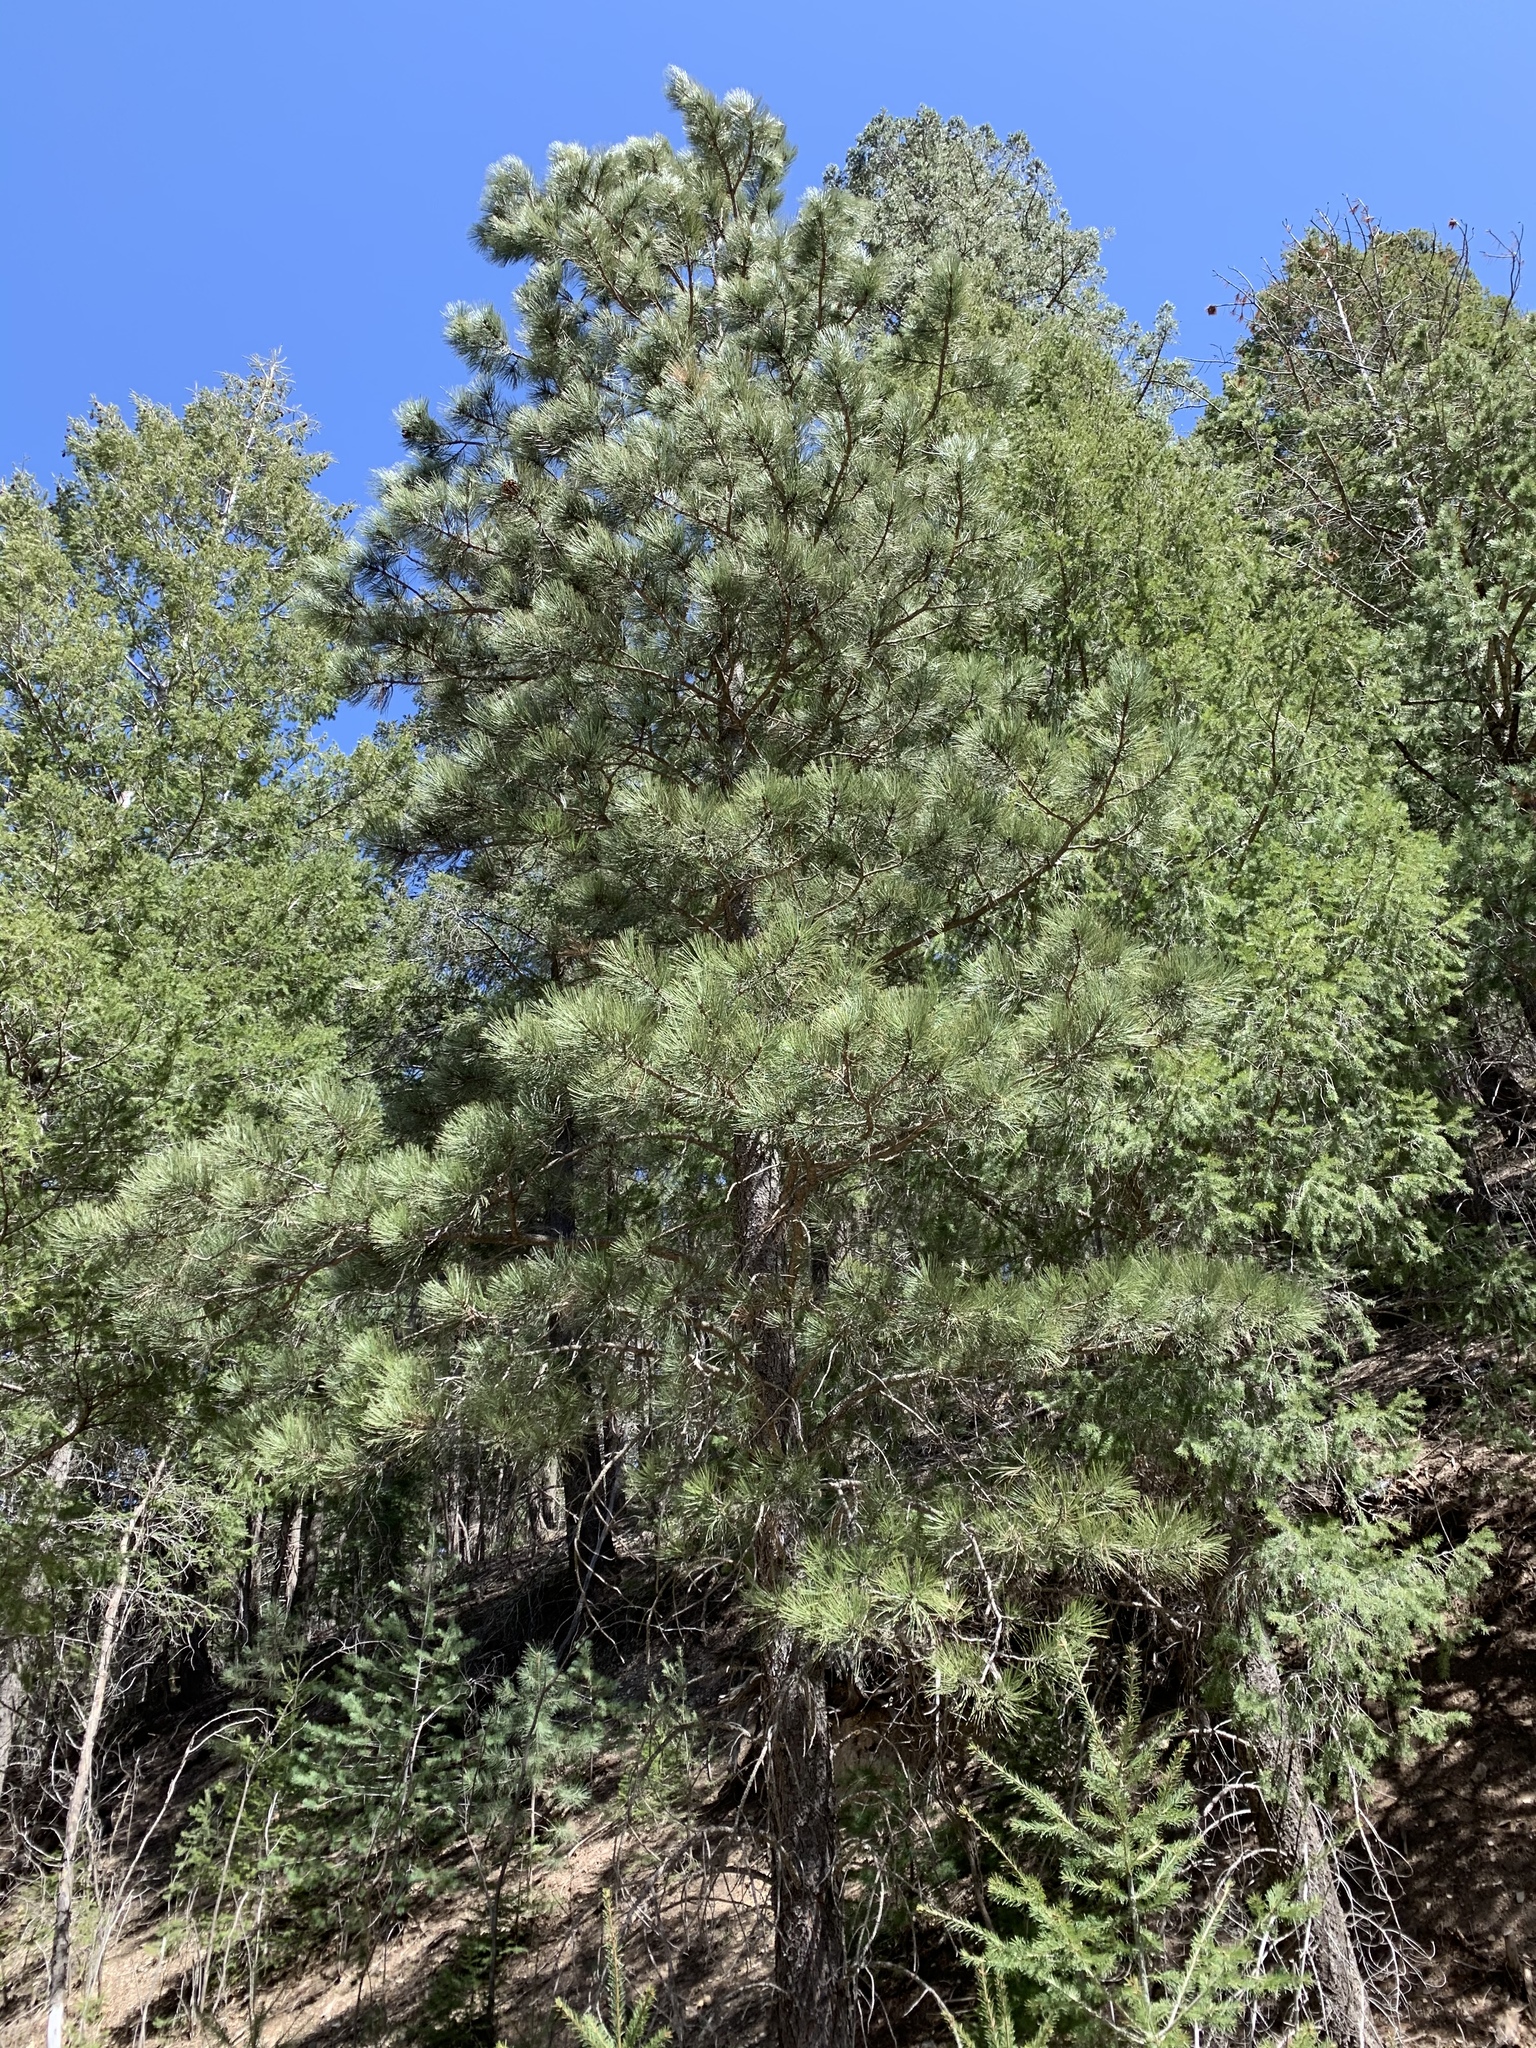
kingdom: Plantae
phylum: Tracheophyta
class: Pinopsida
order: Pinales
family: Pinaceae
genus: Pinus
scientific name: Pinus ponderosa
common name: Western yellow-pine
